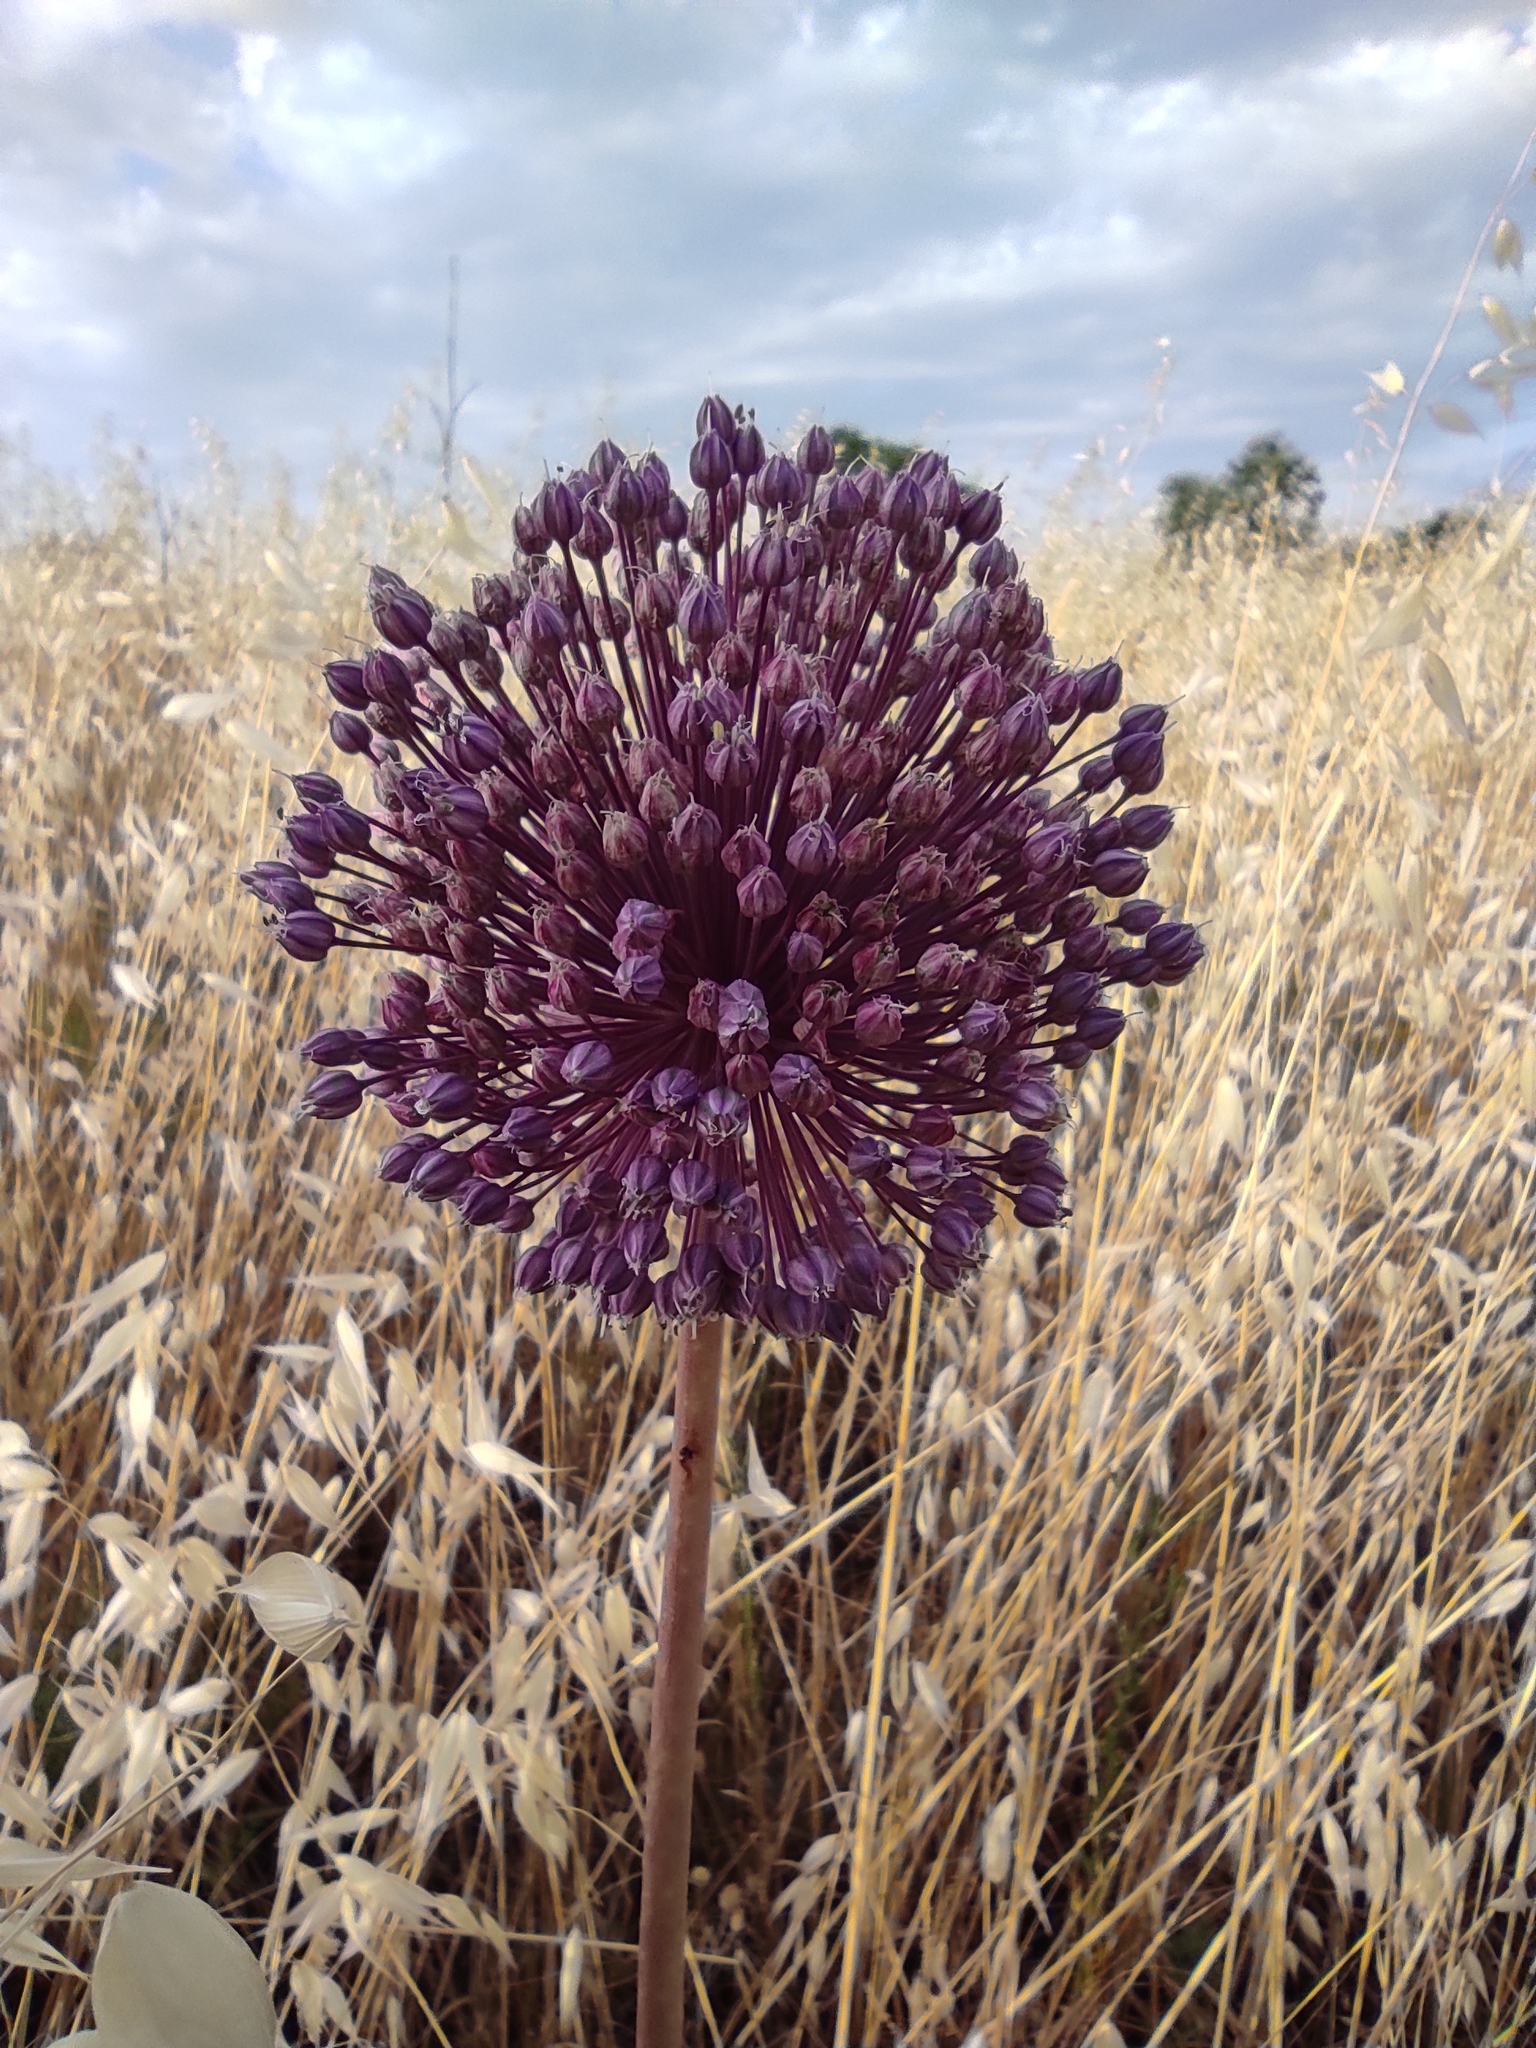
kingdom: Plantae
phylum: Tracheophyta
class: Liliopsida
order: Asparagales
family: Amaryllidaceae
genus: Allium
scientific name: Allium ampeloprasum
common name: Wild leek
